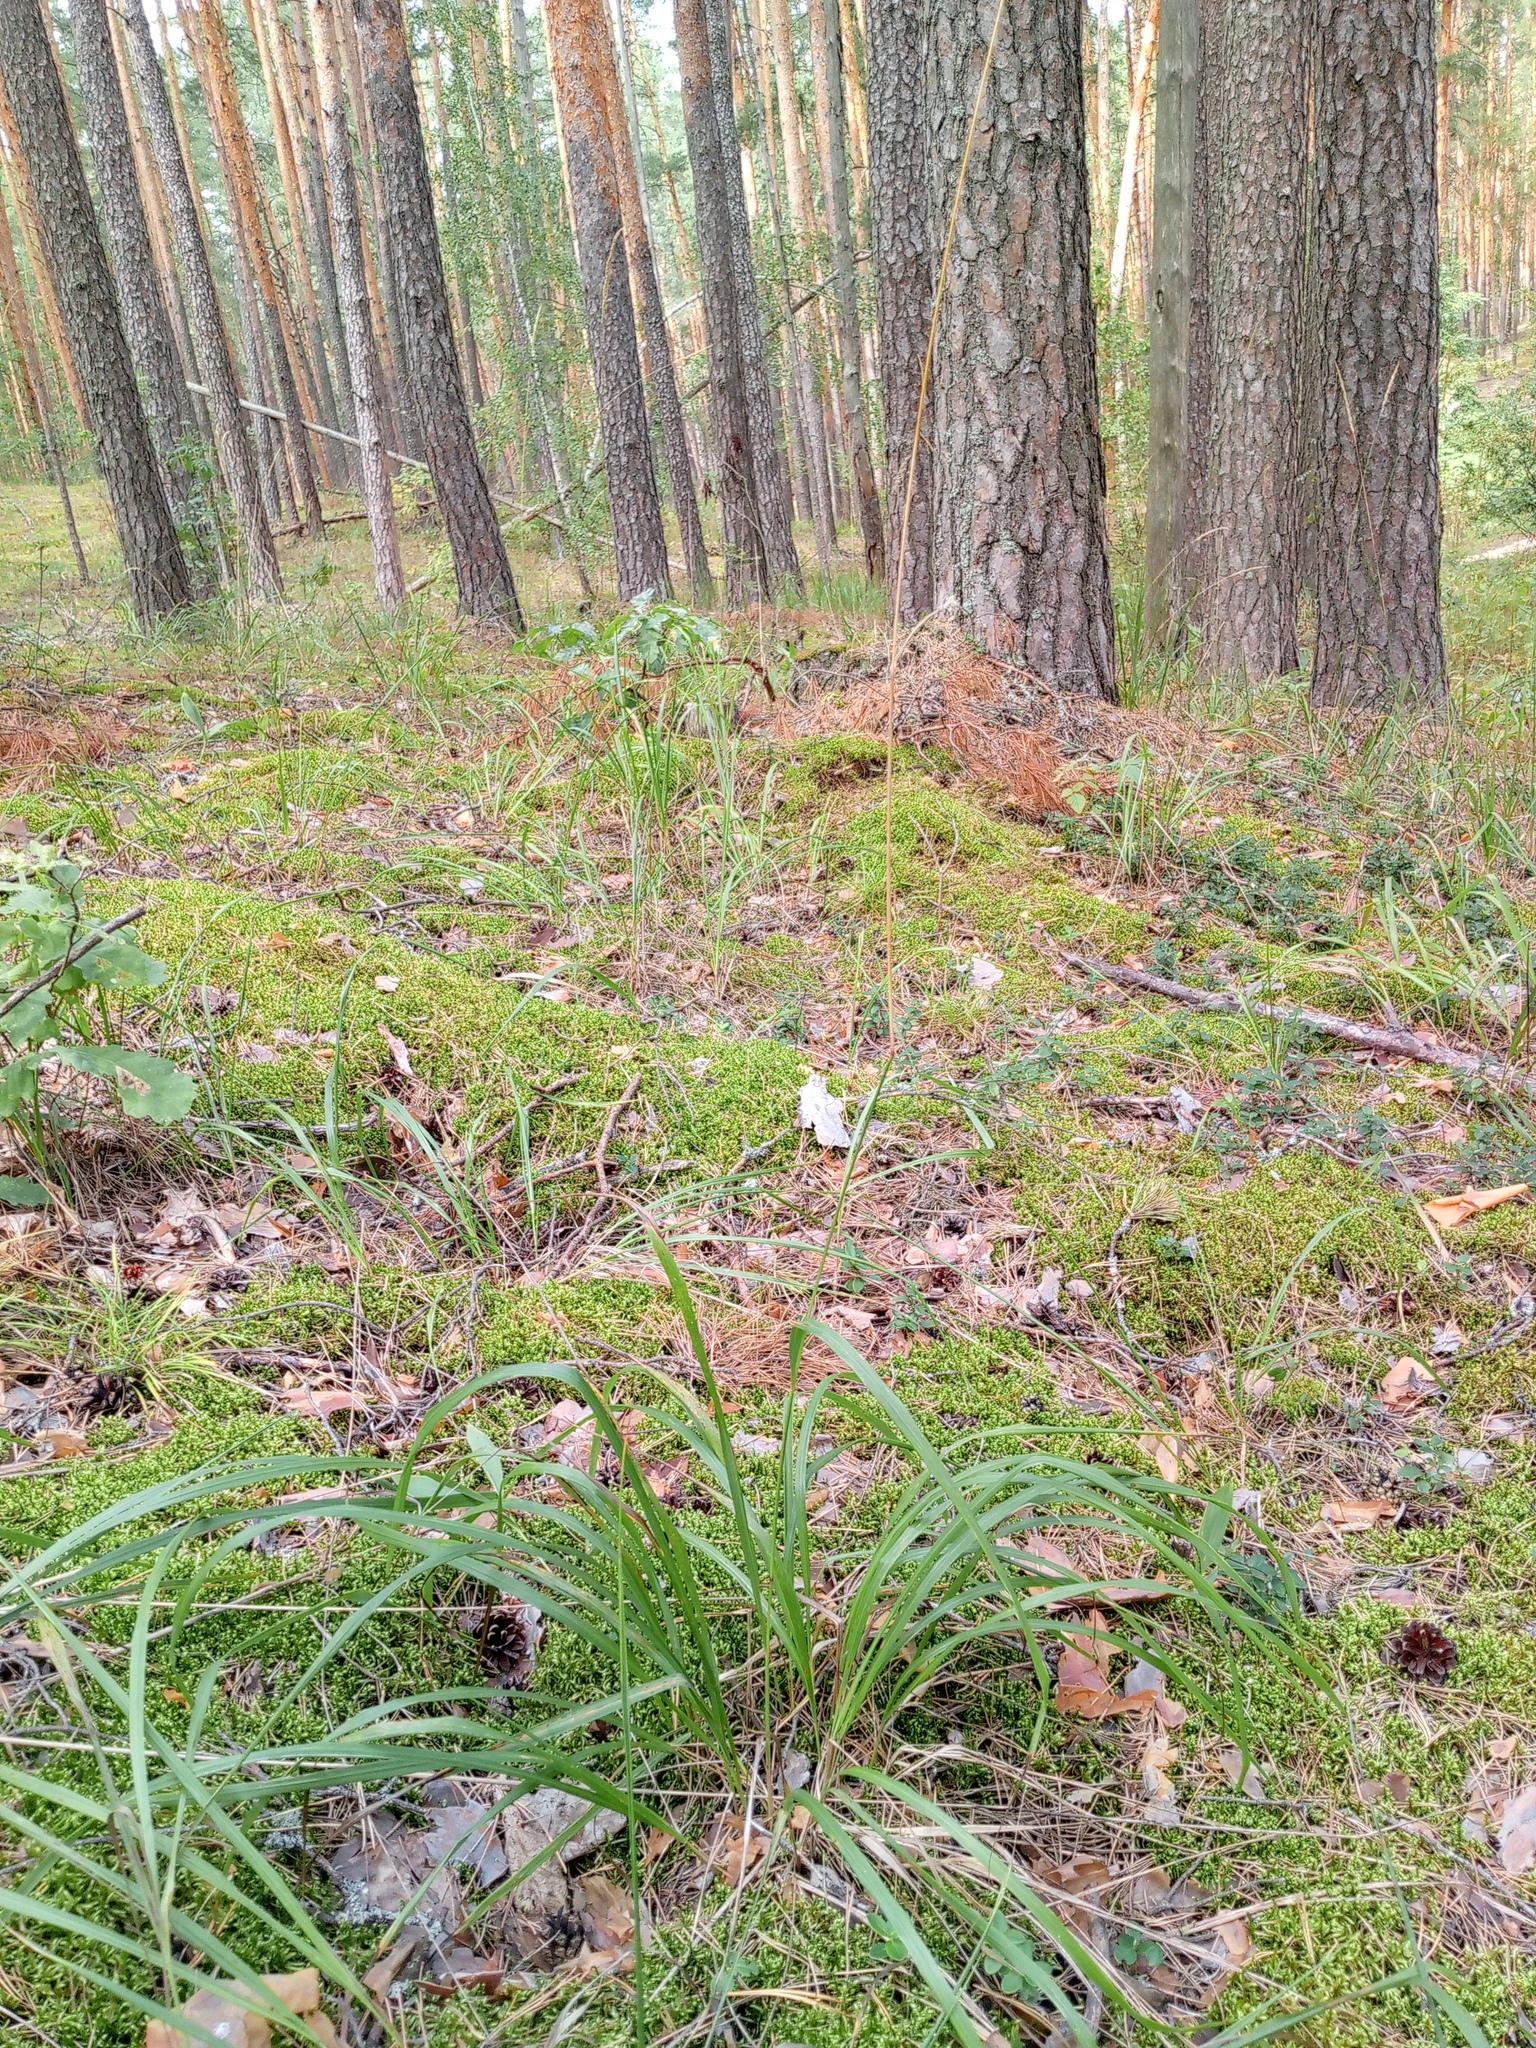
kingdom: Plantae
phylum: Tracheophyta
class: Liliopsida
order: Poales
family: Poaceae
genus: Calamagrostis
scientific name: Calamagrostis arundinacea
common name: Metskastik
